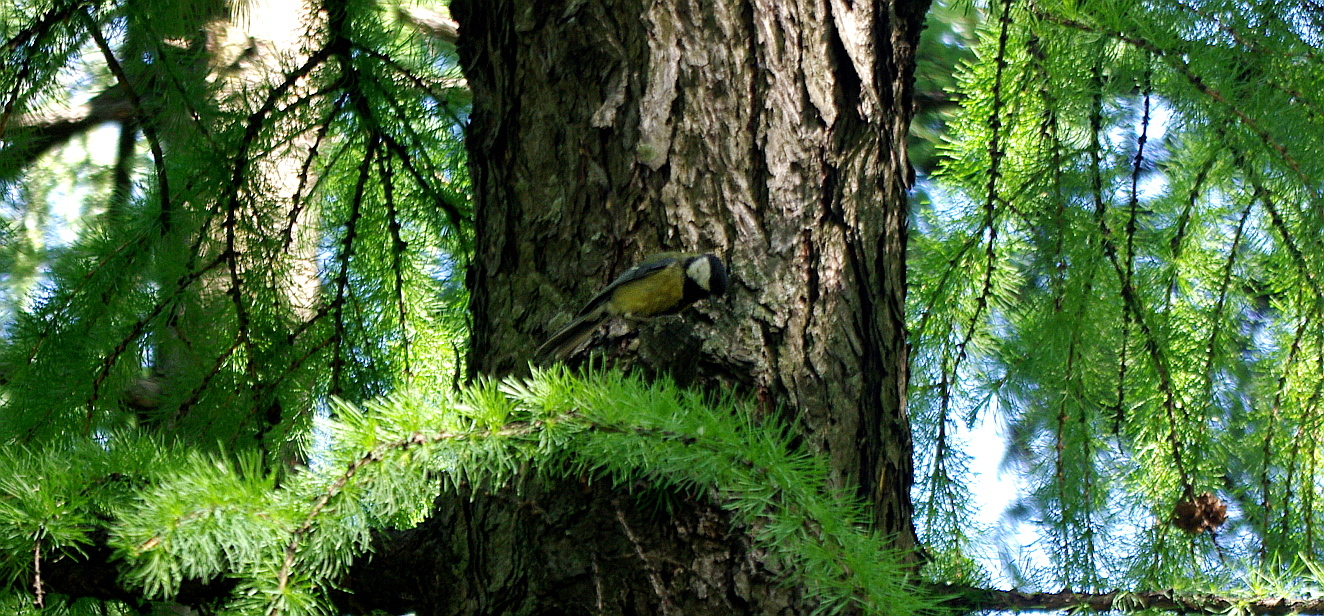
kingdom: Animalia
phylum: Chordata
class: Aves
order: Passeriformes
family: Paridae
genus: Parus
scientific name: Parus major
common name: Great tit
